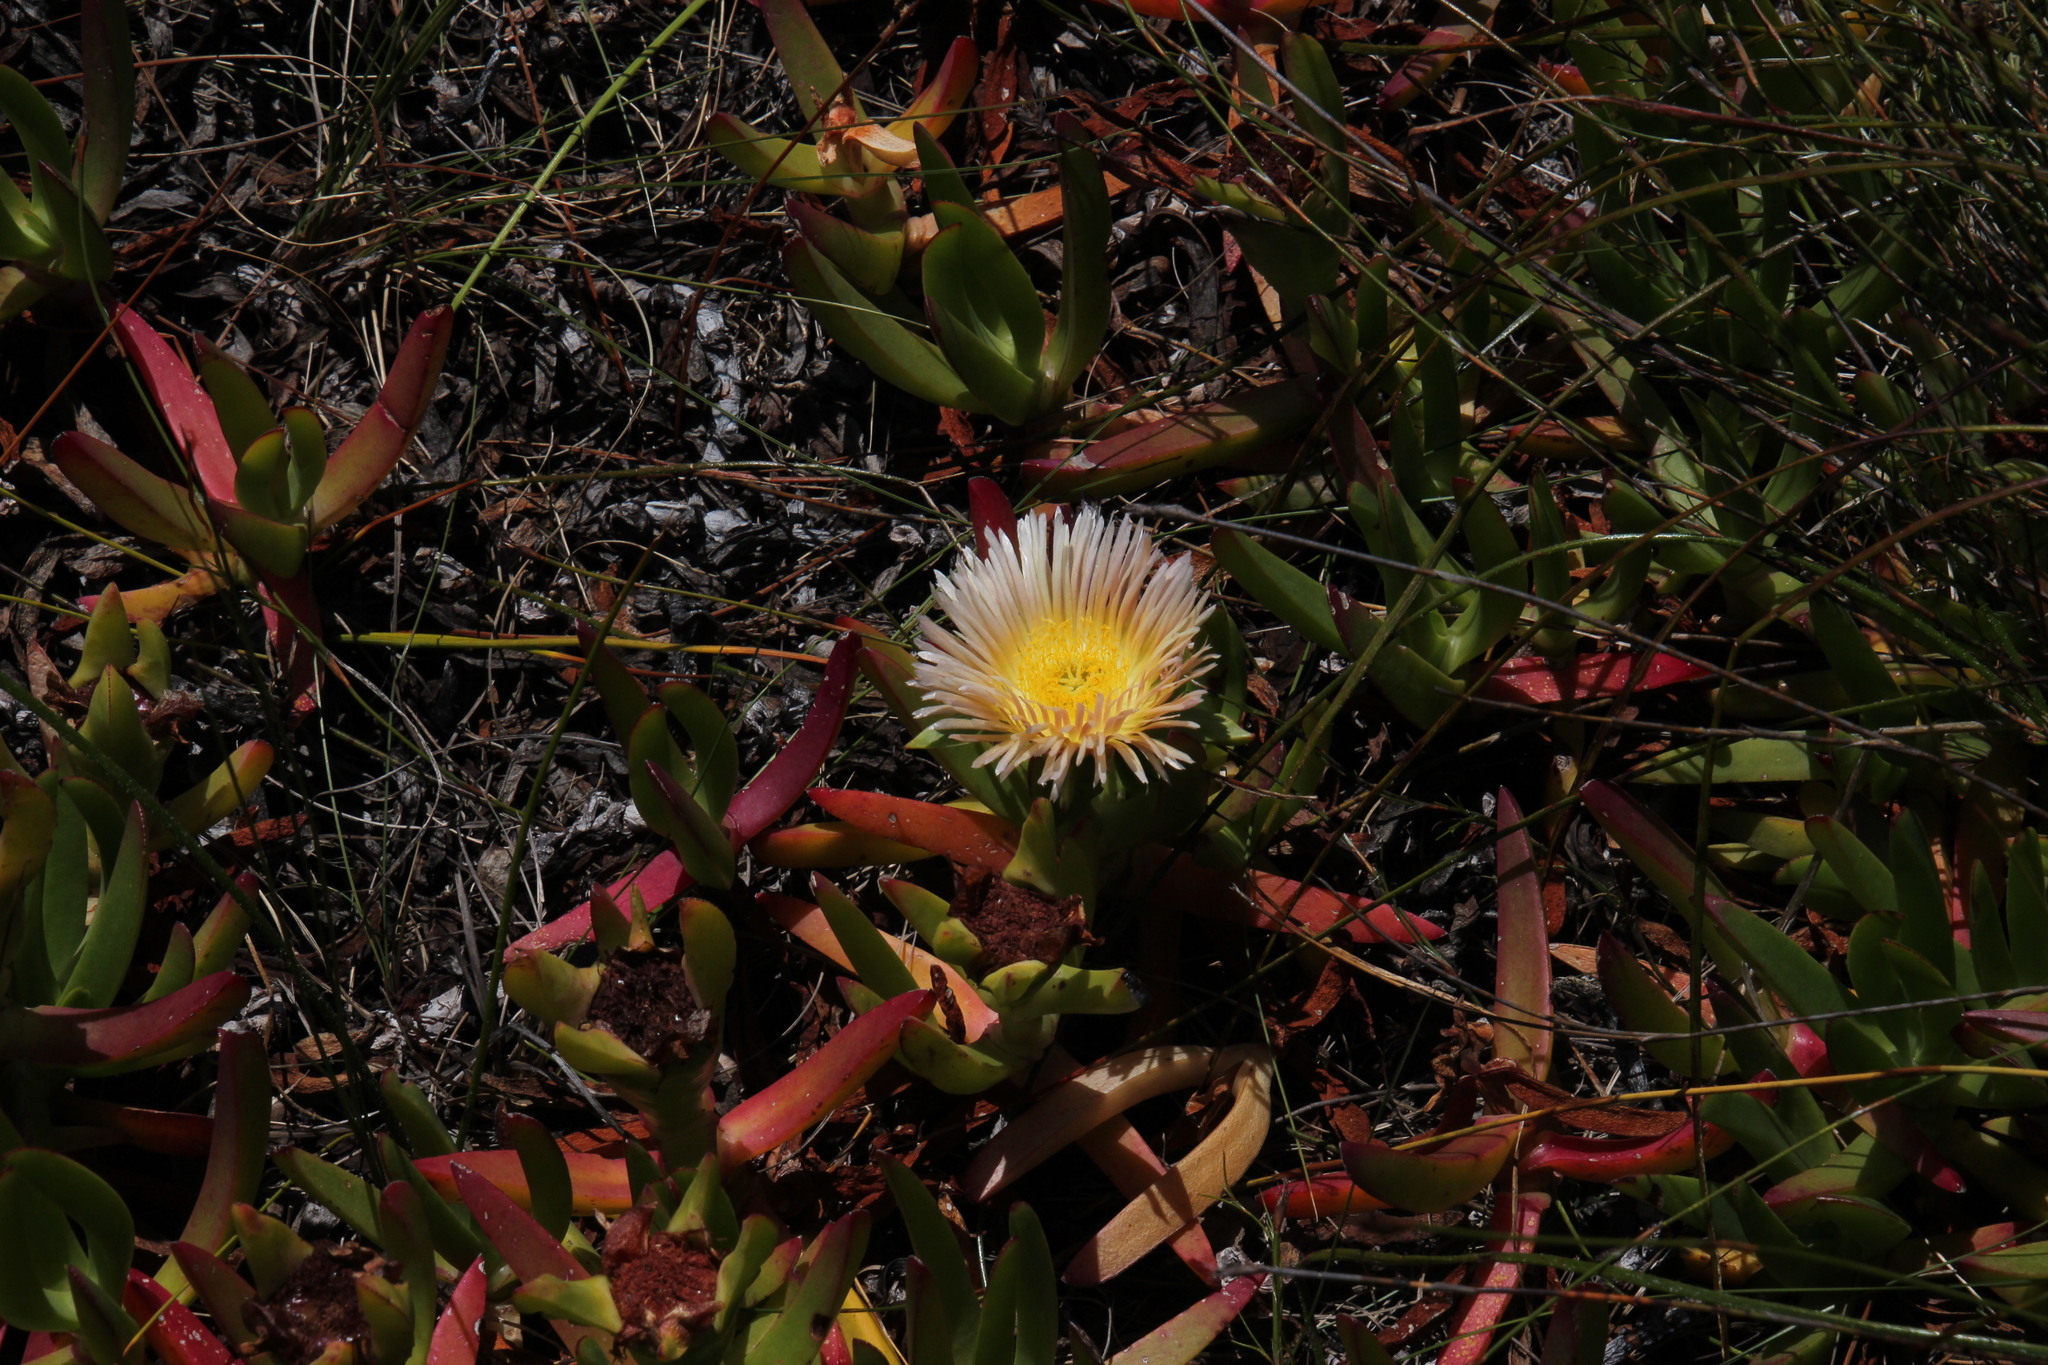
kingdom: Plantae
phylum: Tracheophyta
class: Magnoliopsida
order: Caryophyllales
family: Aizoaceae
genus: Carpobrotus
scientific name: Carpobrotus edulis
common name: Hottentot-fig
